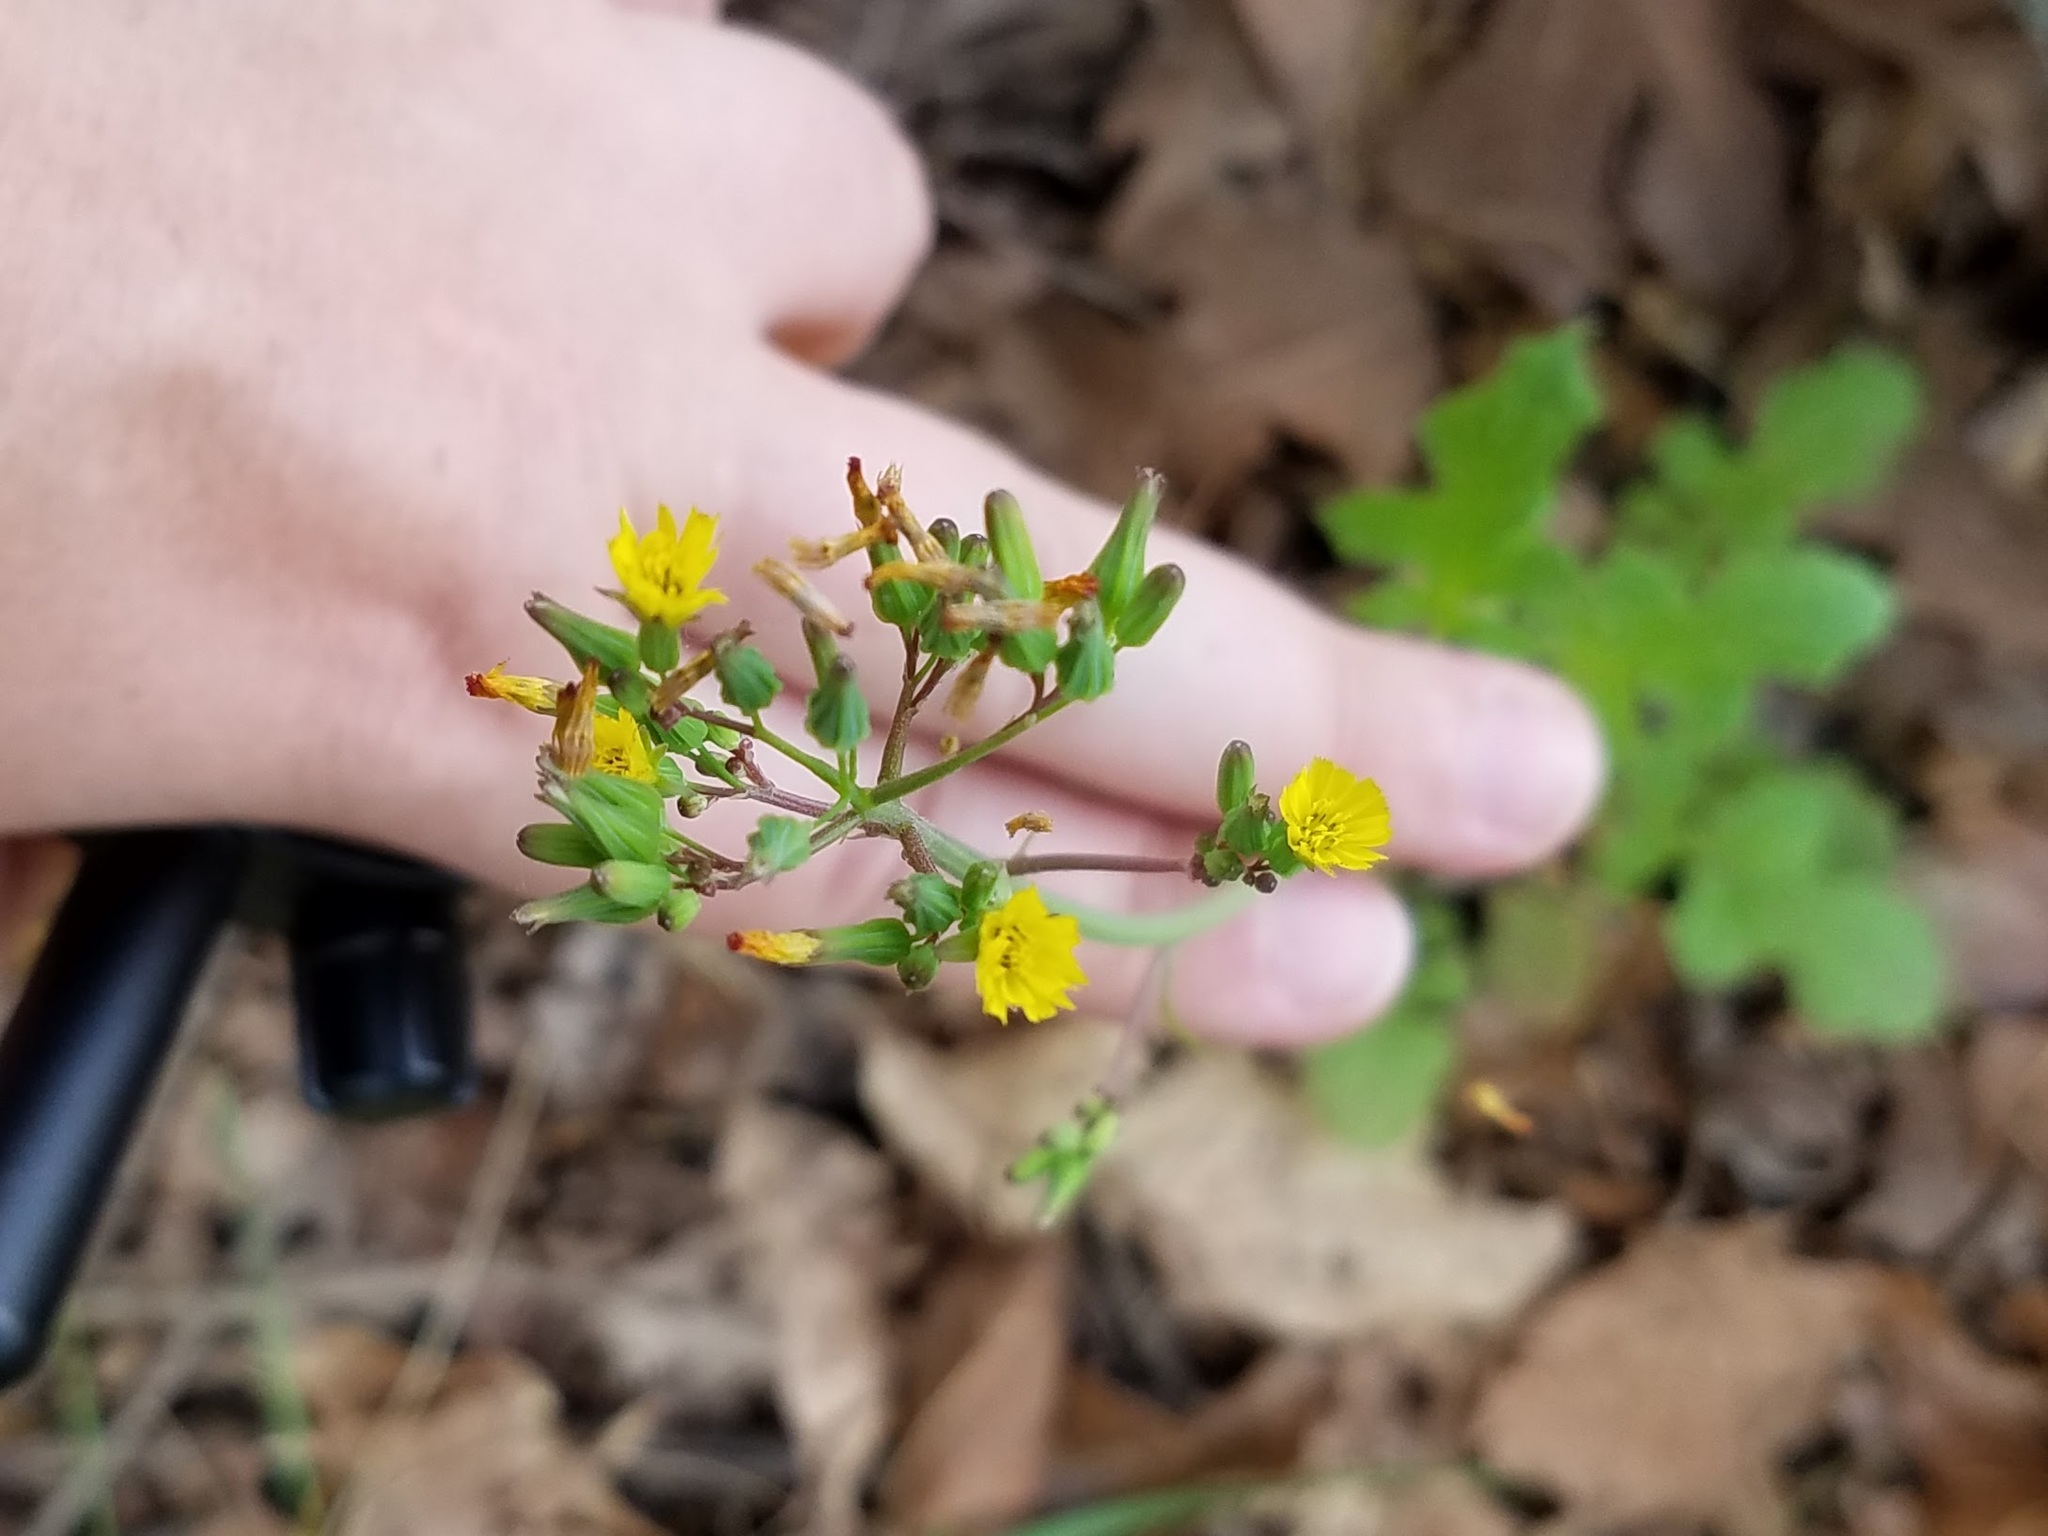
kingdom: Plantae
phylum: Tracheophyta
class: Magnoliopsida
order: Asterales
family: Asteraceae
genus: Youngia
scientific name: Youngia japonica
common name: Oriental false hawksbeard
